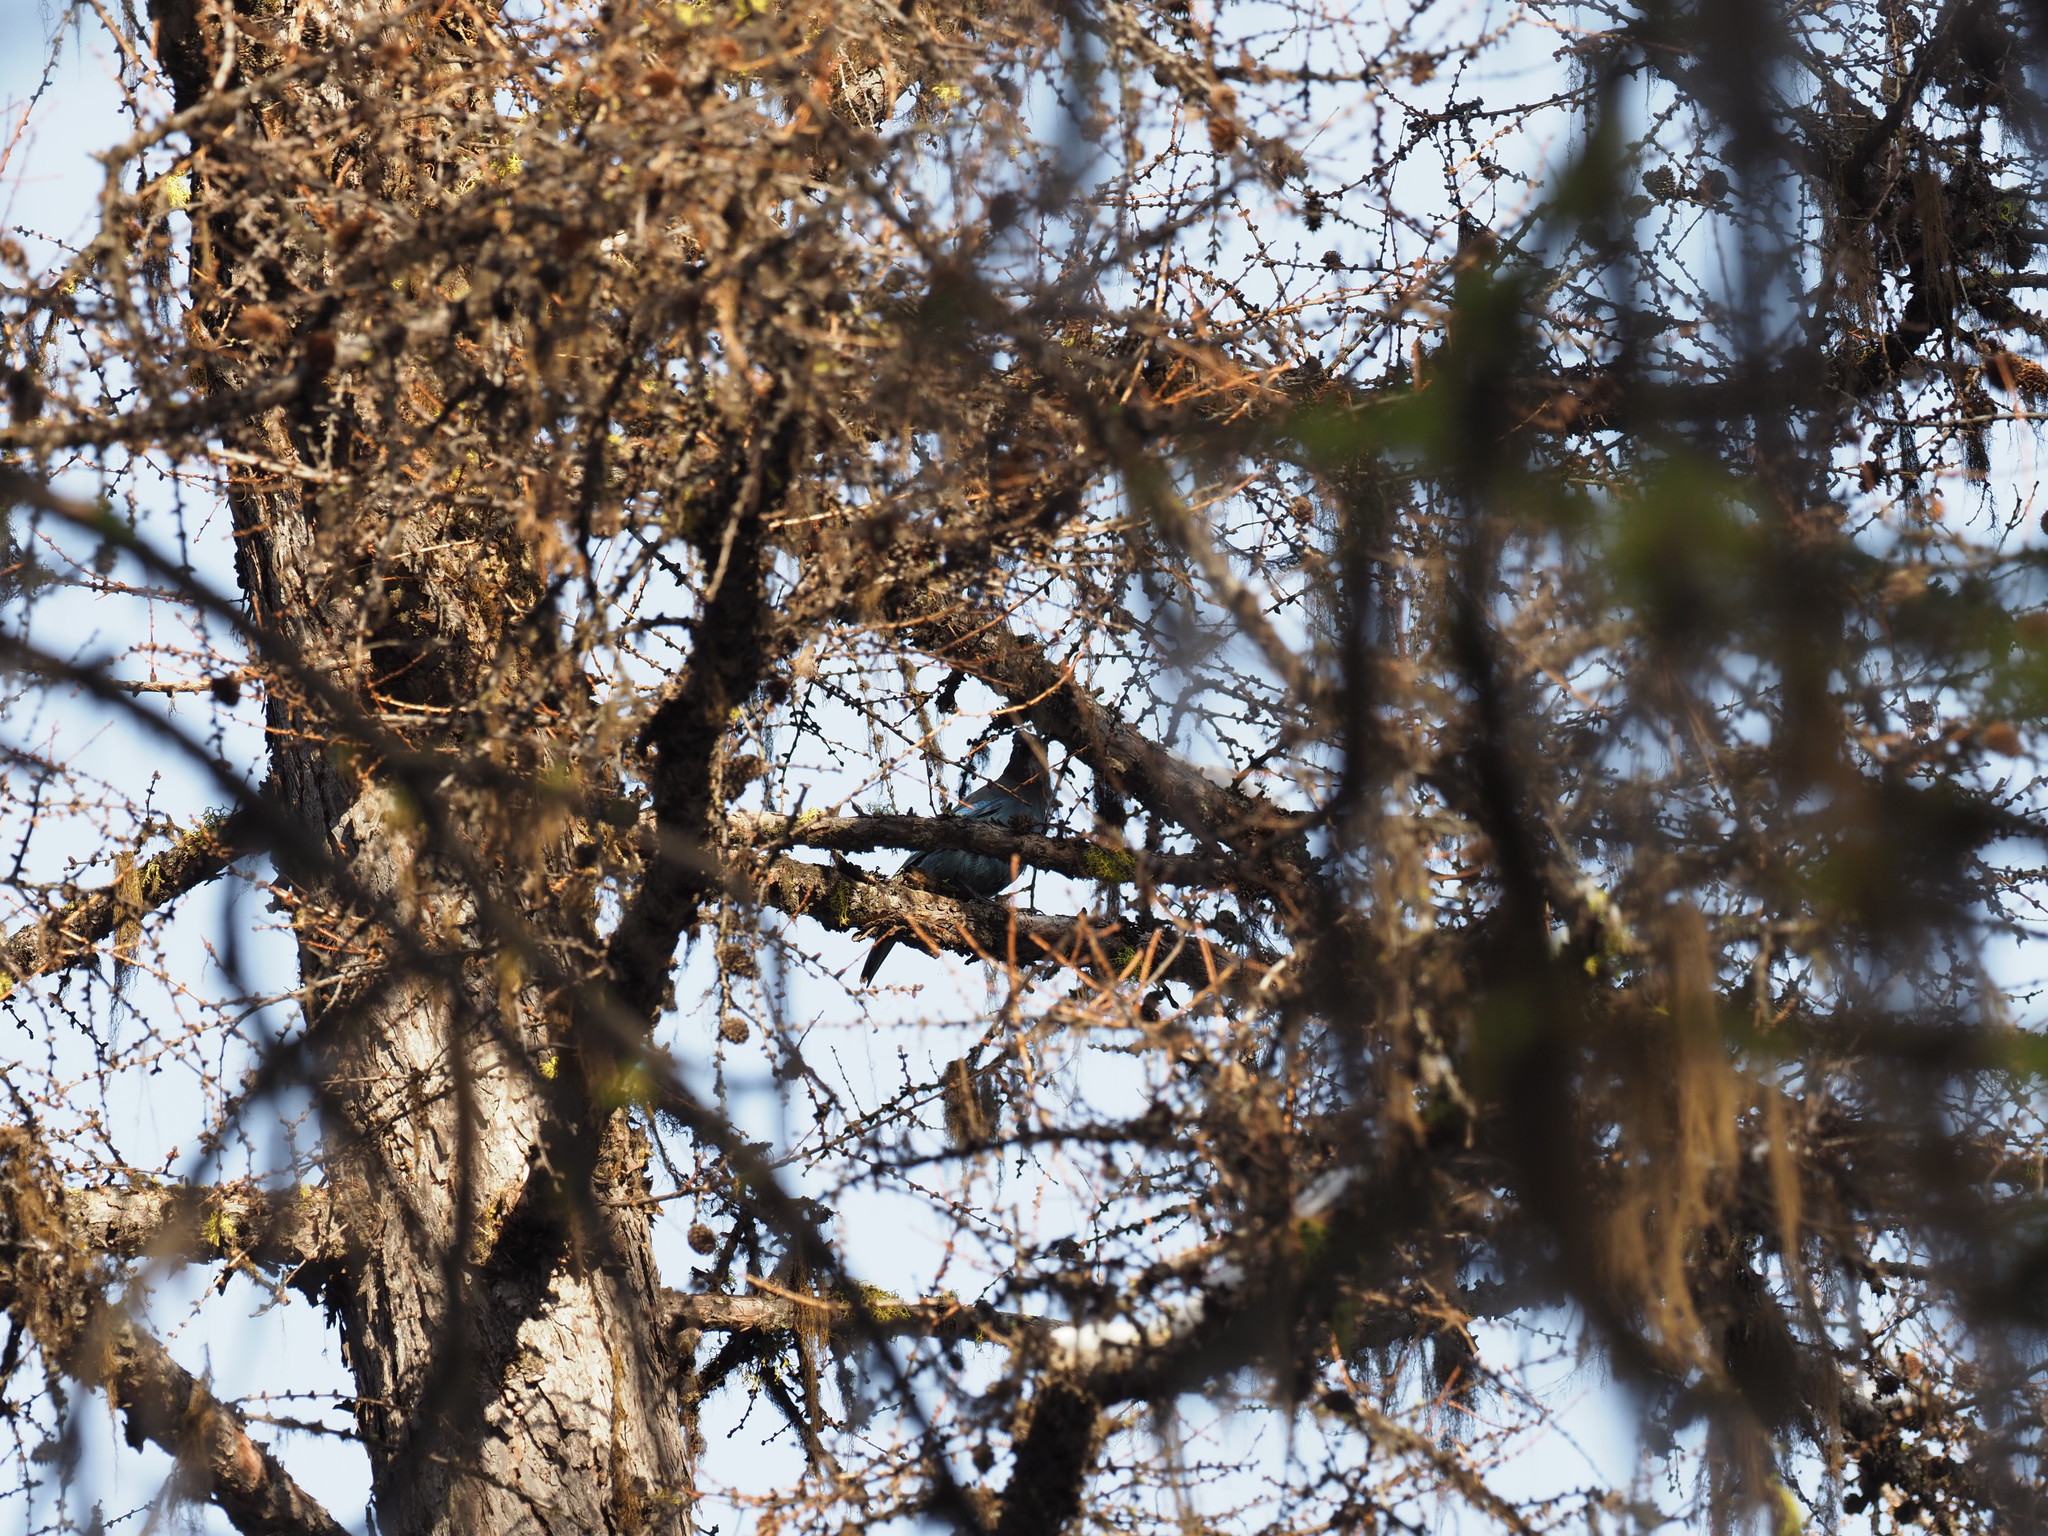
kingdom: Animalia
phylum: Chordata
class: Aves
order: Passeriformes
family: Corvidae
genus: Cyanocitta
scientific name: Cyanocitta stelleri
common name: Steller's jay
